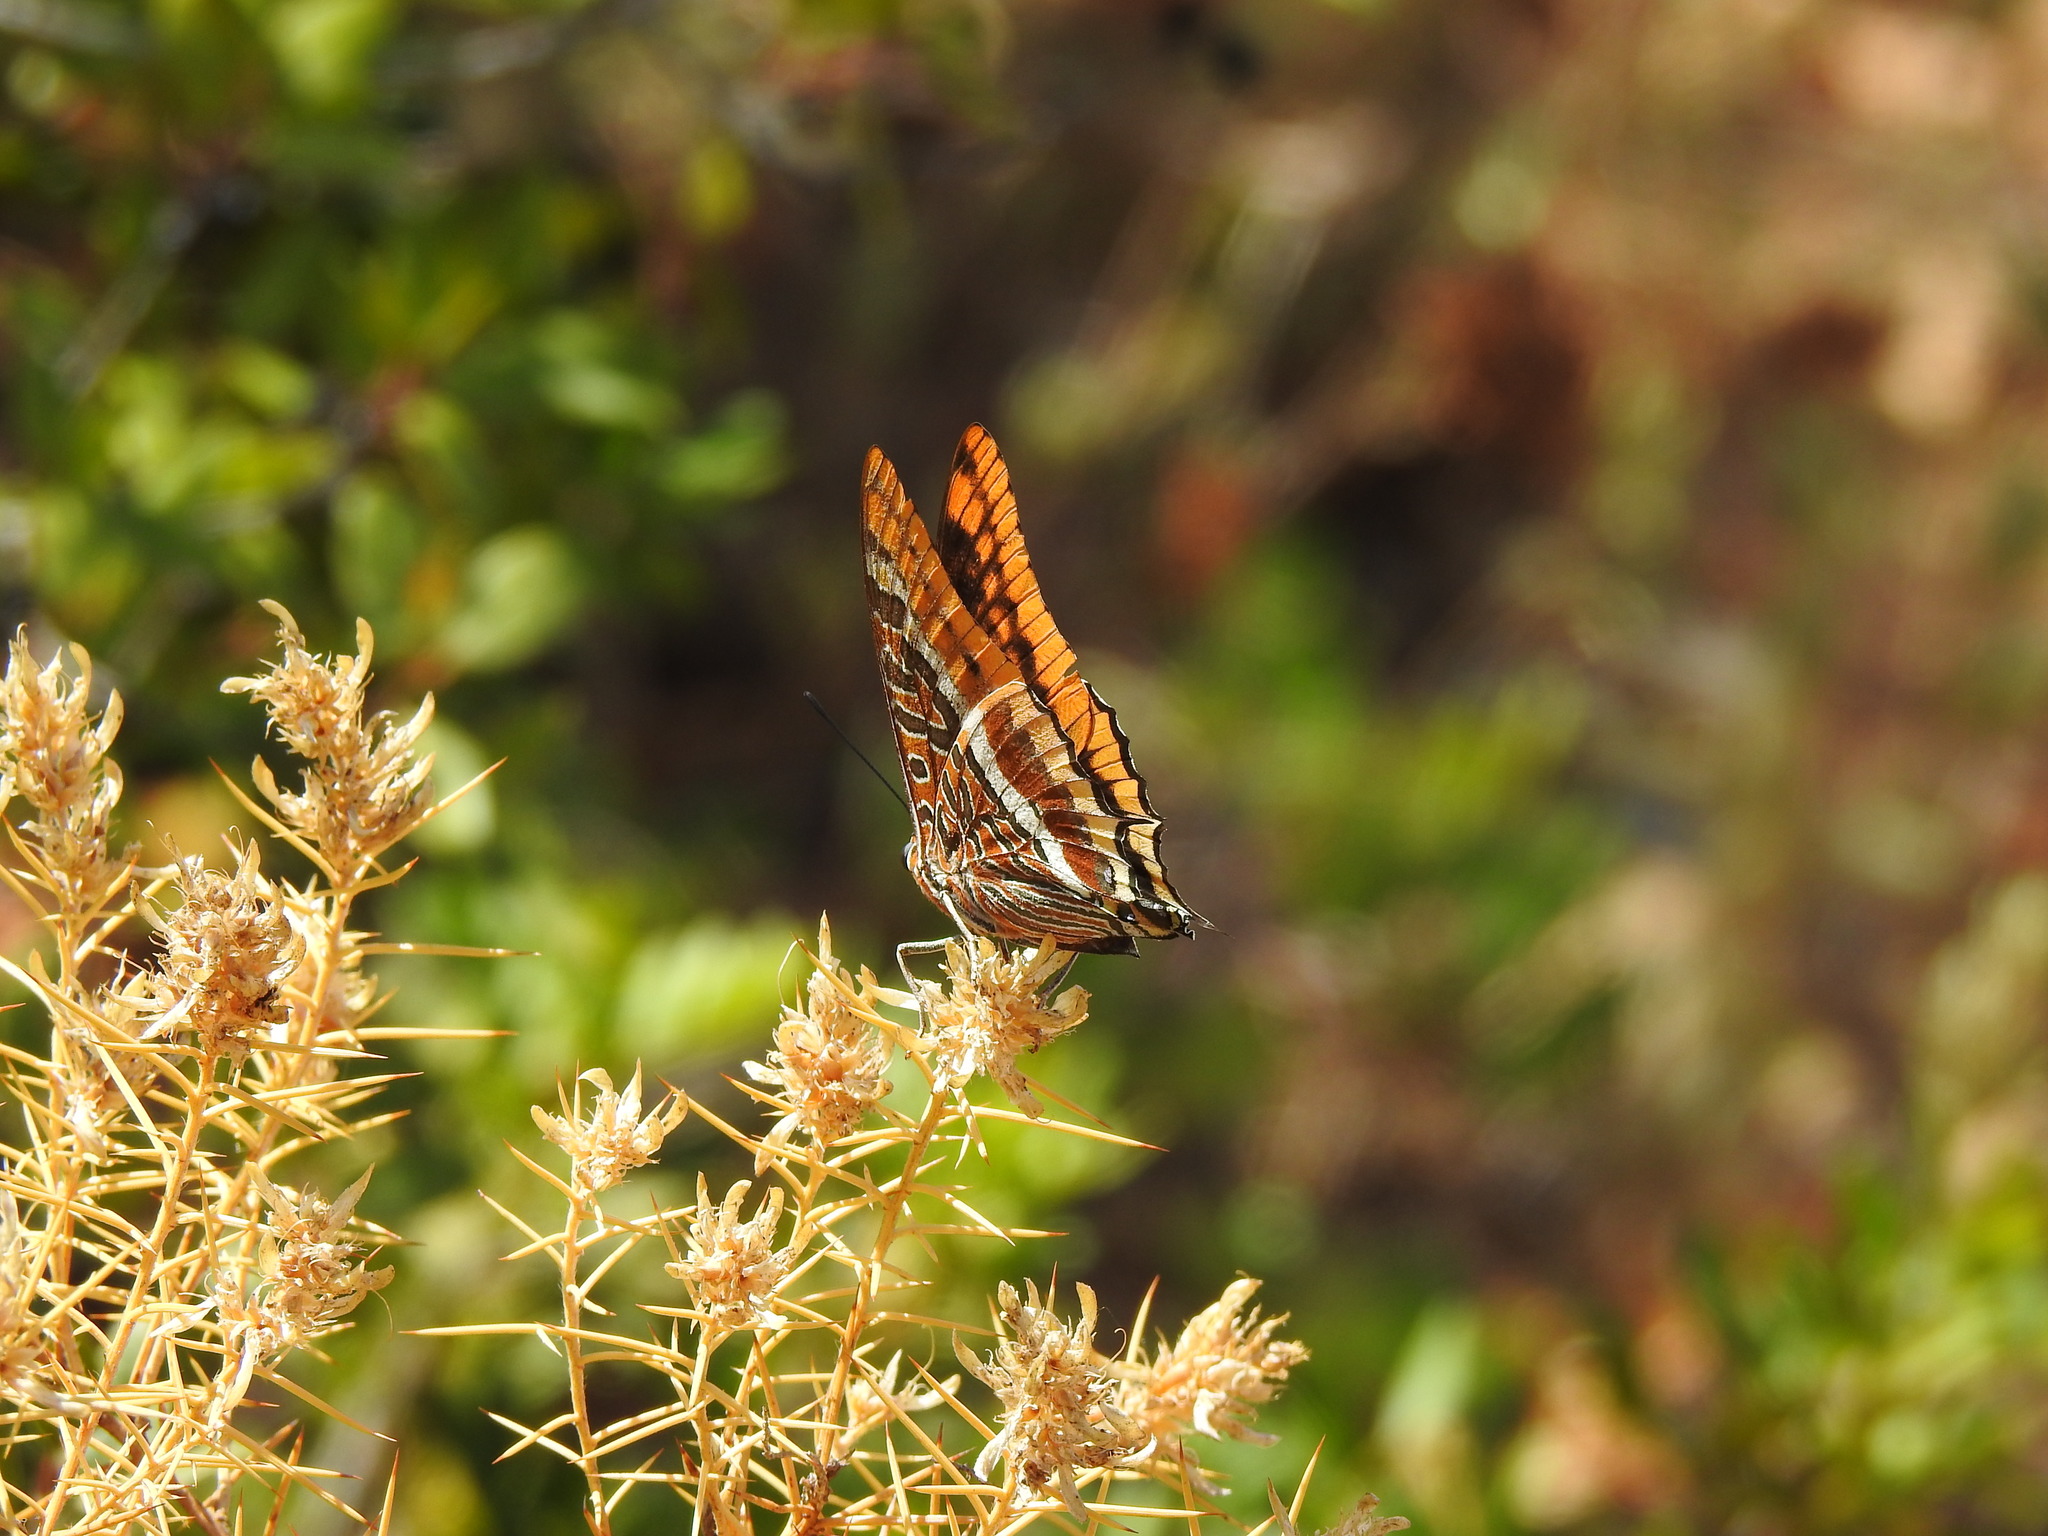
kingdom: Animalia
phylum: Arthropoda
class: Insecta
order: Lepidoptera
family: Nymphalidae
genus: Charaxes
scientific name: Charaxes jasius
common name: Two tailed pasha
